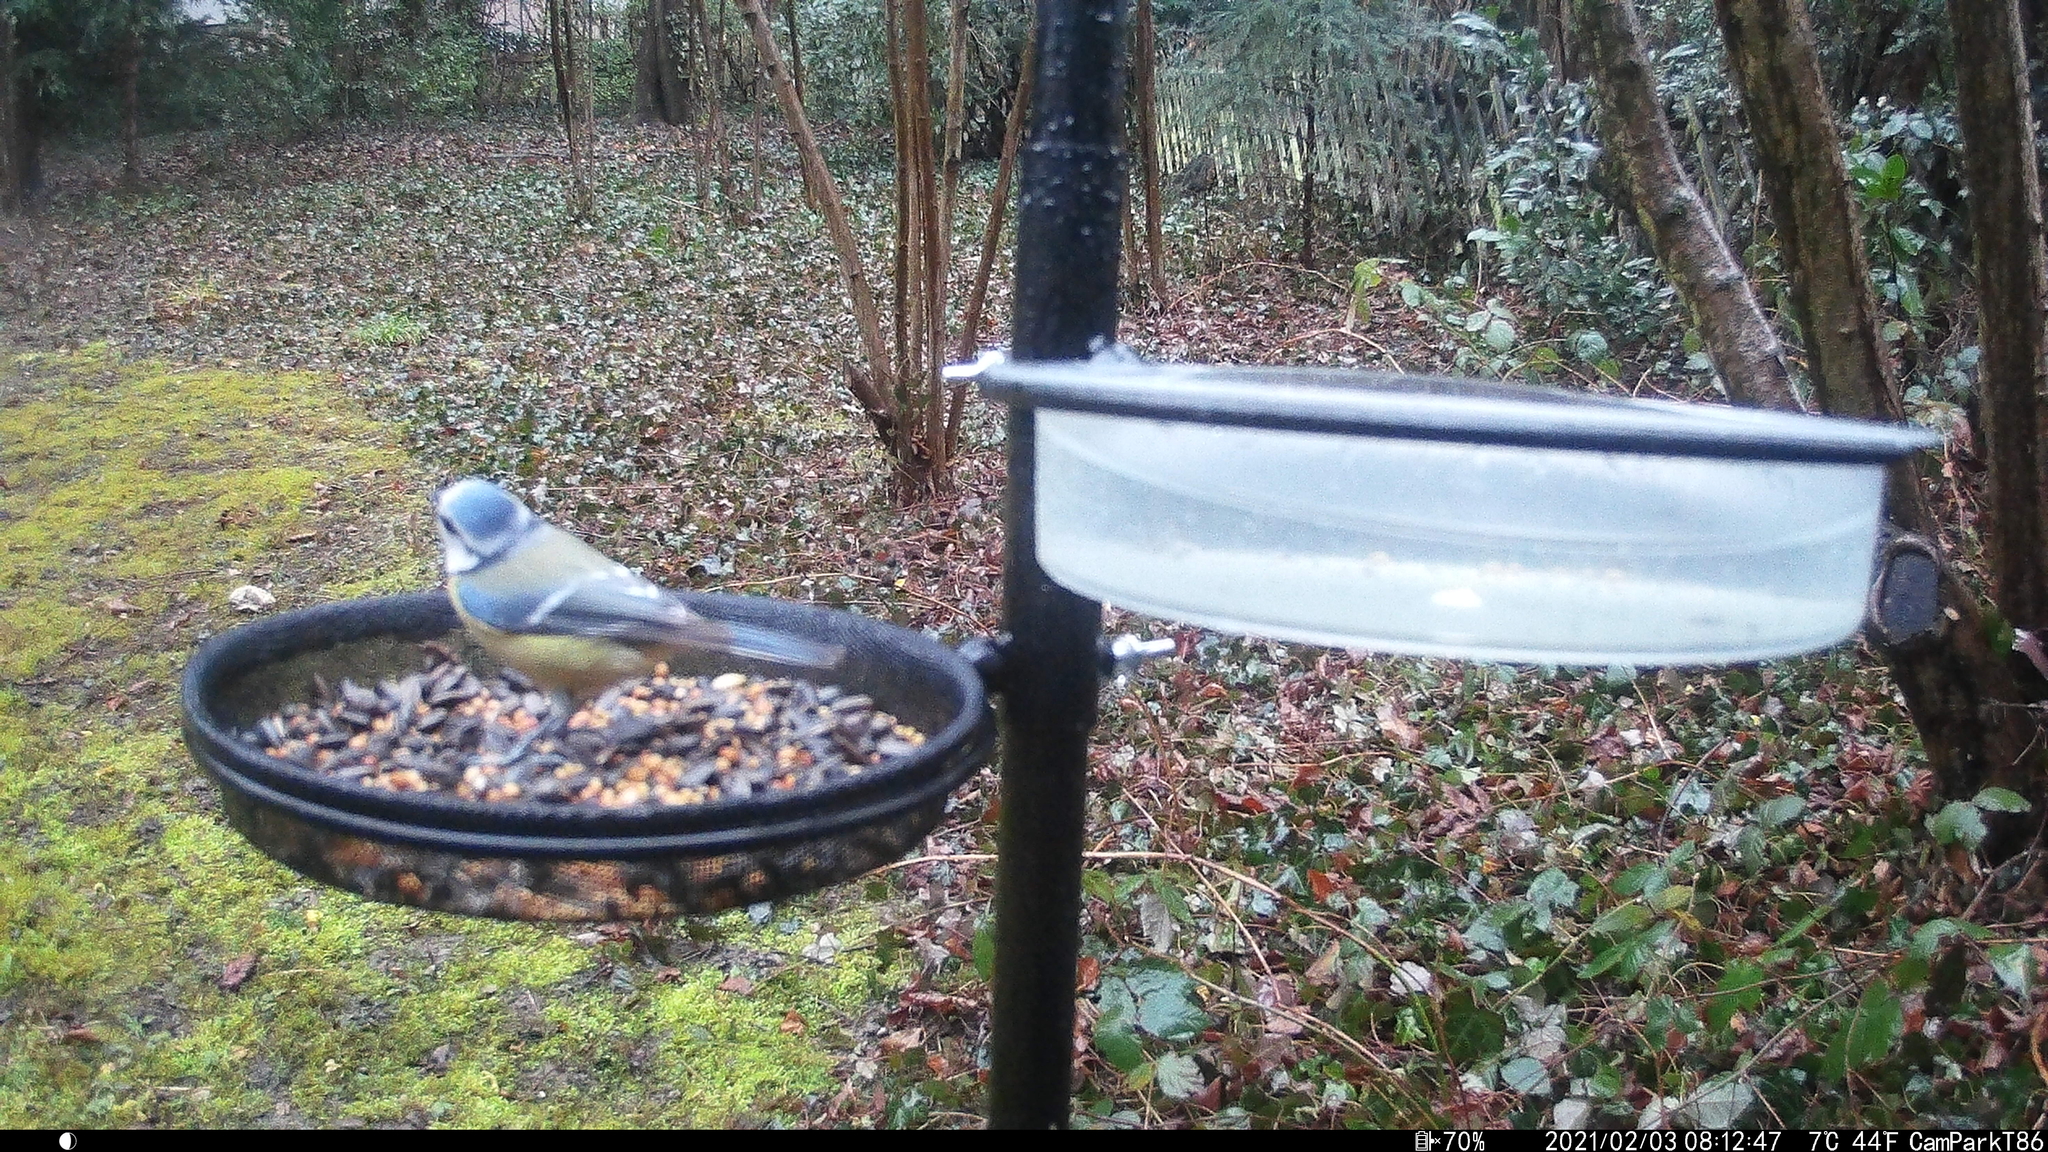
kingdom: Animalia
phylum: Chordata
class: Aves
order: Passeriformes
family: Paridae
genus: Cyanistes
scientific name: Cyanistes caeruleus
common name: Eurasian blue tit
